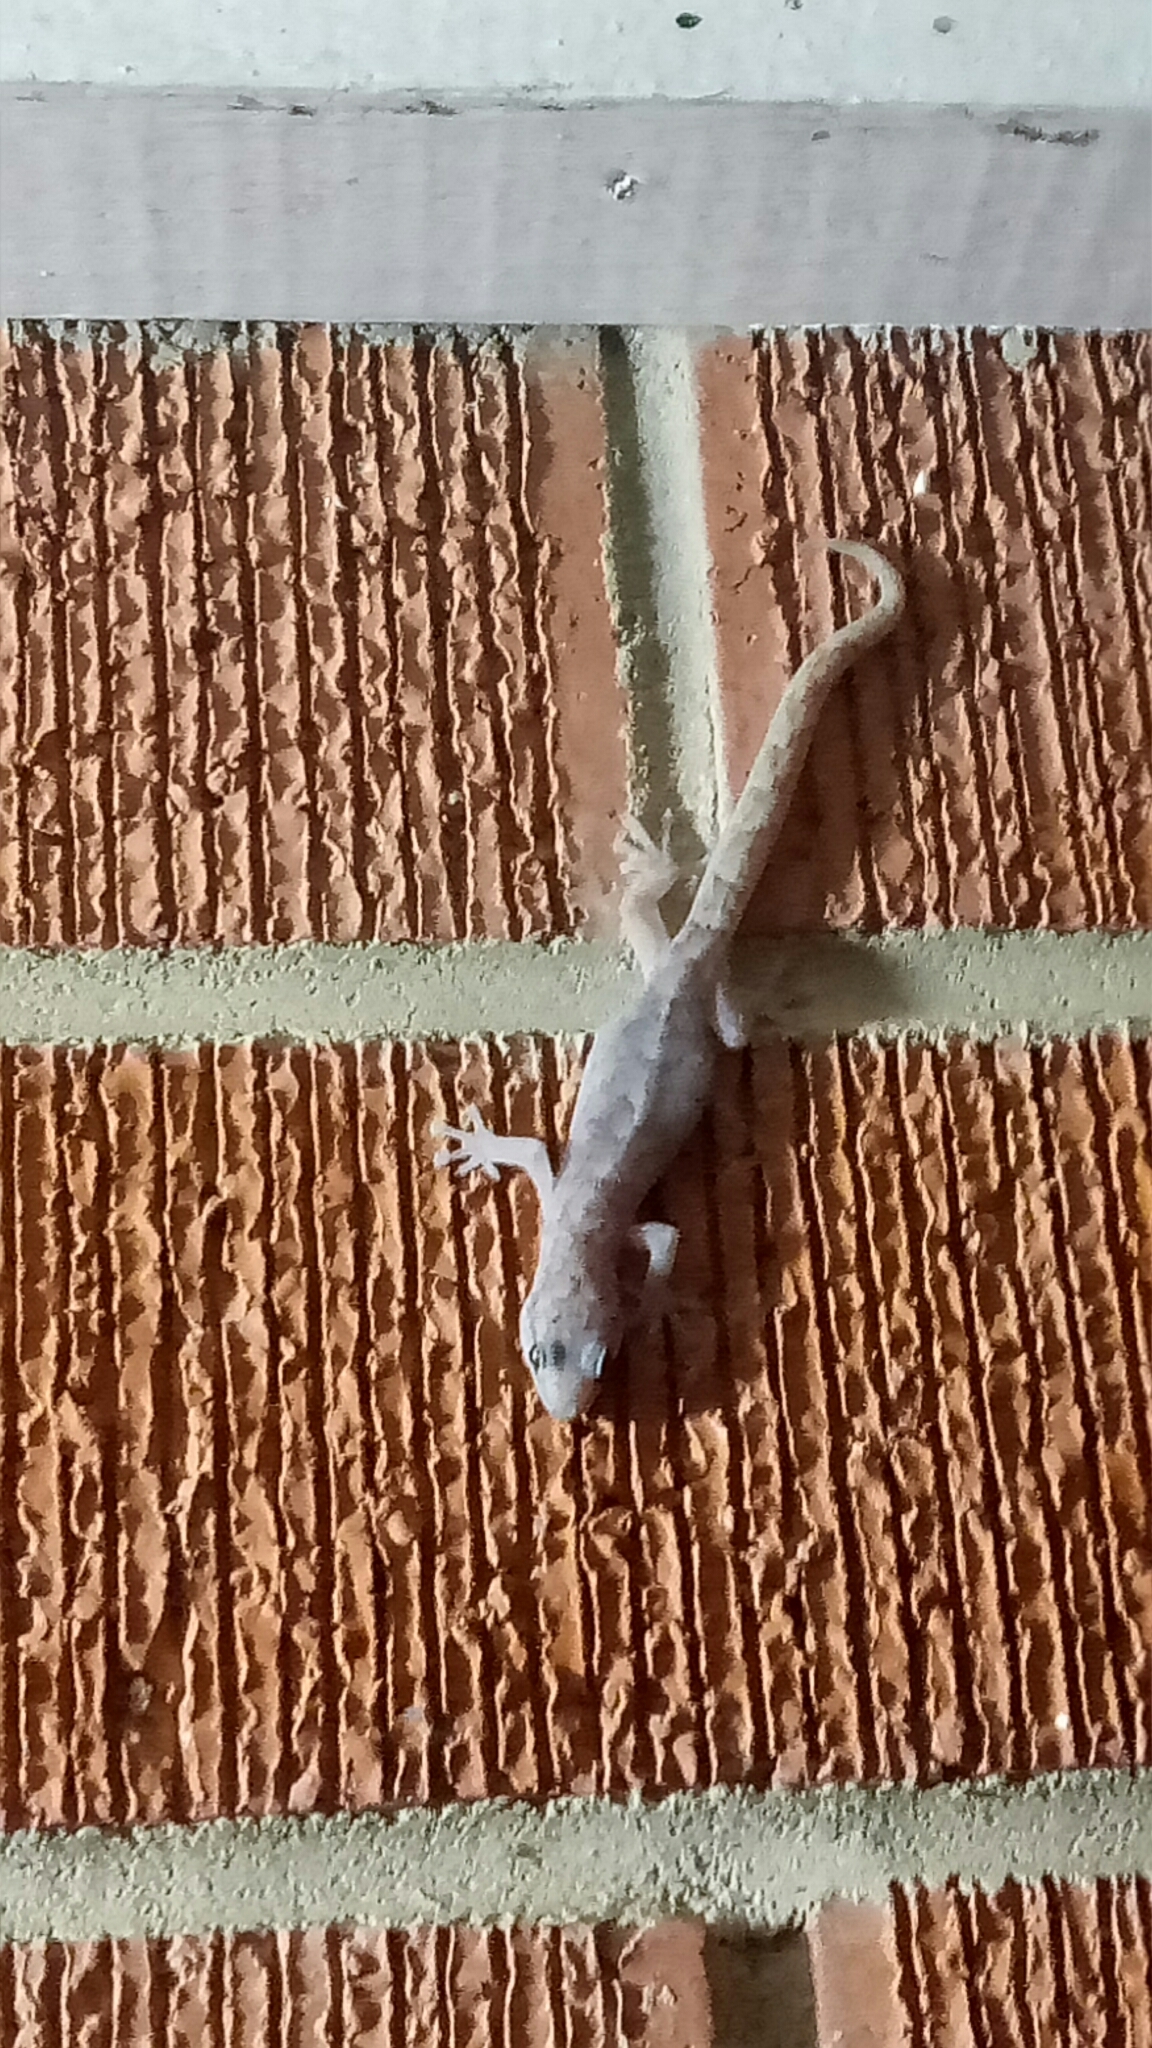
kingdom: Animalia
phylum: Chordata
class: Squamata
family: Gekkonidae
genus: Christinus
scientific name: Christinus marmoratus
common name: Marbled gecko
